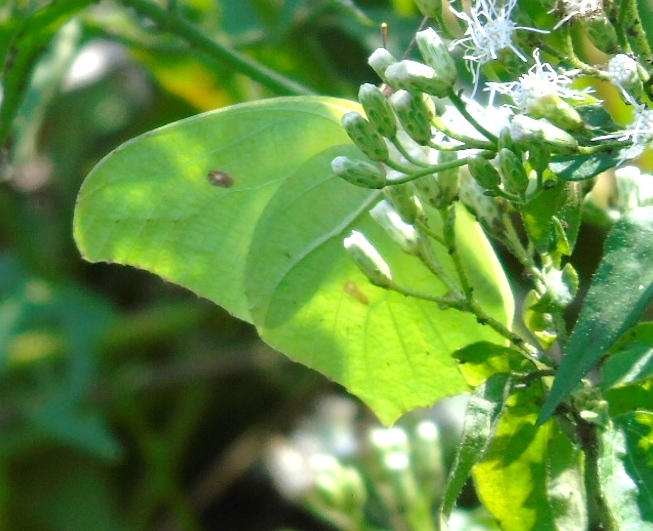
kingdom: Animalia
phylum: Arthropoda
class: Insecta
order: Lepidoptera
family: Pieridae
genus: Anteos
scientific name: Anteos maerula
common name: Angled sulphur
